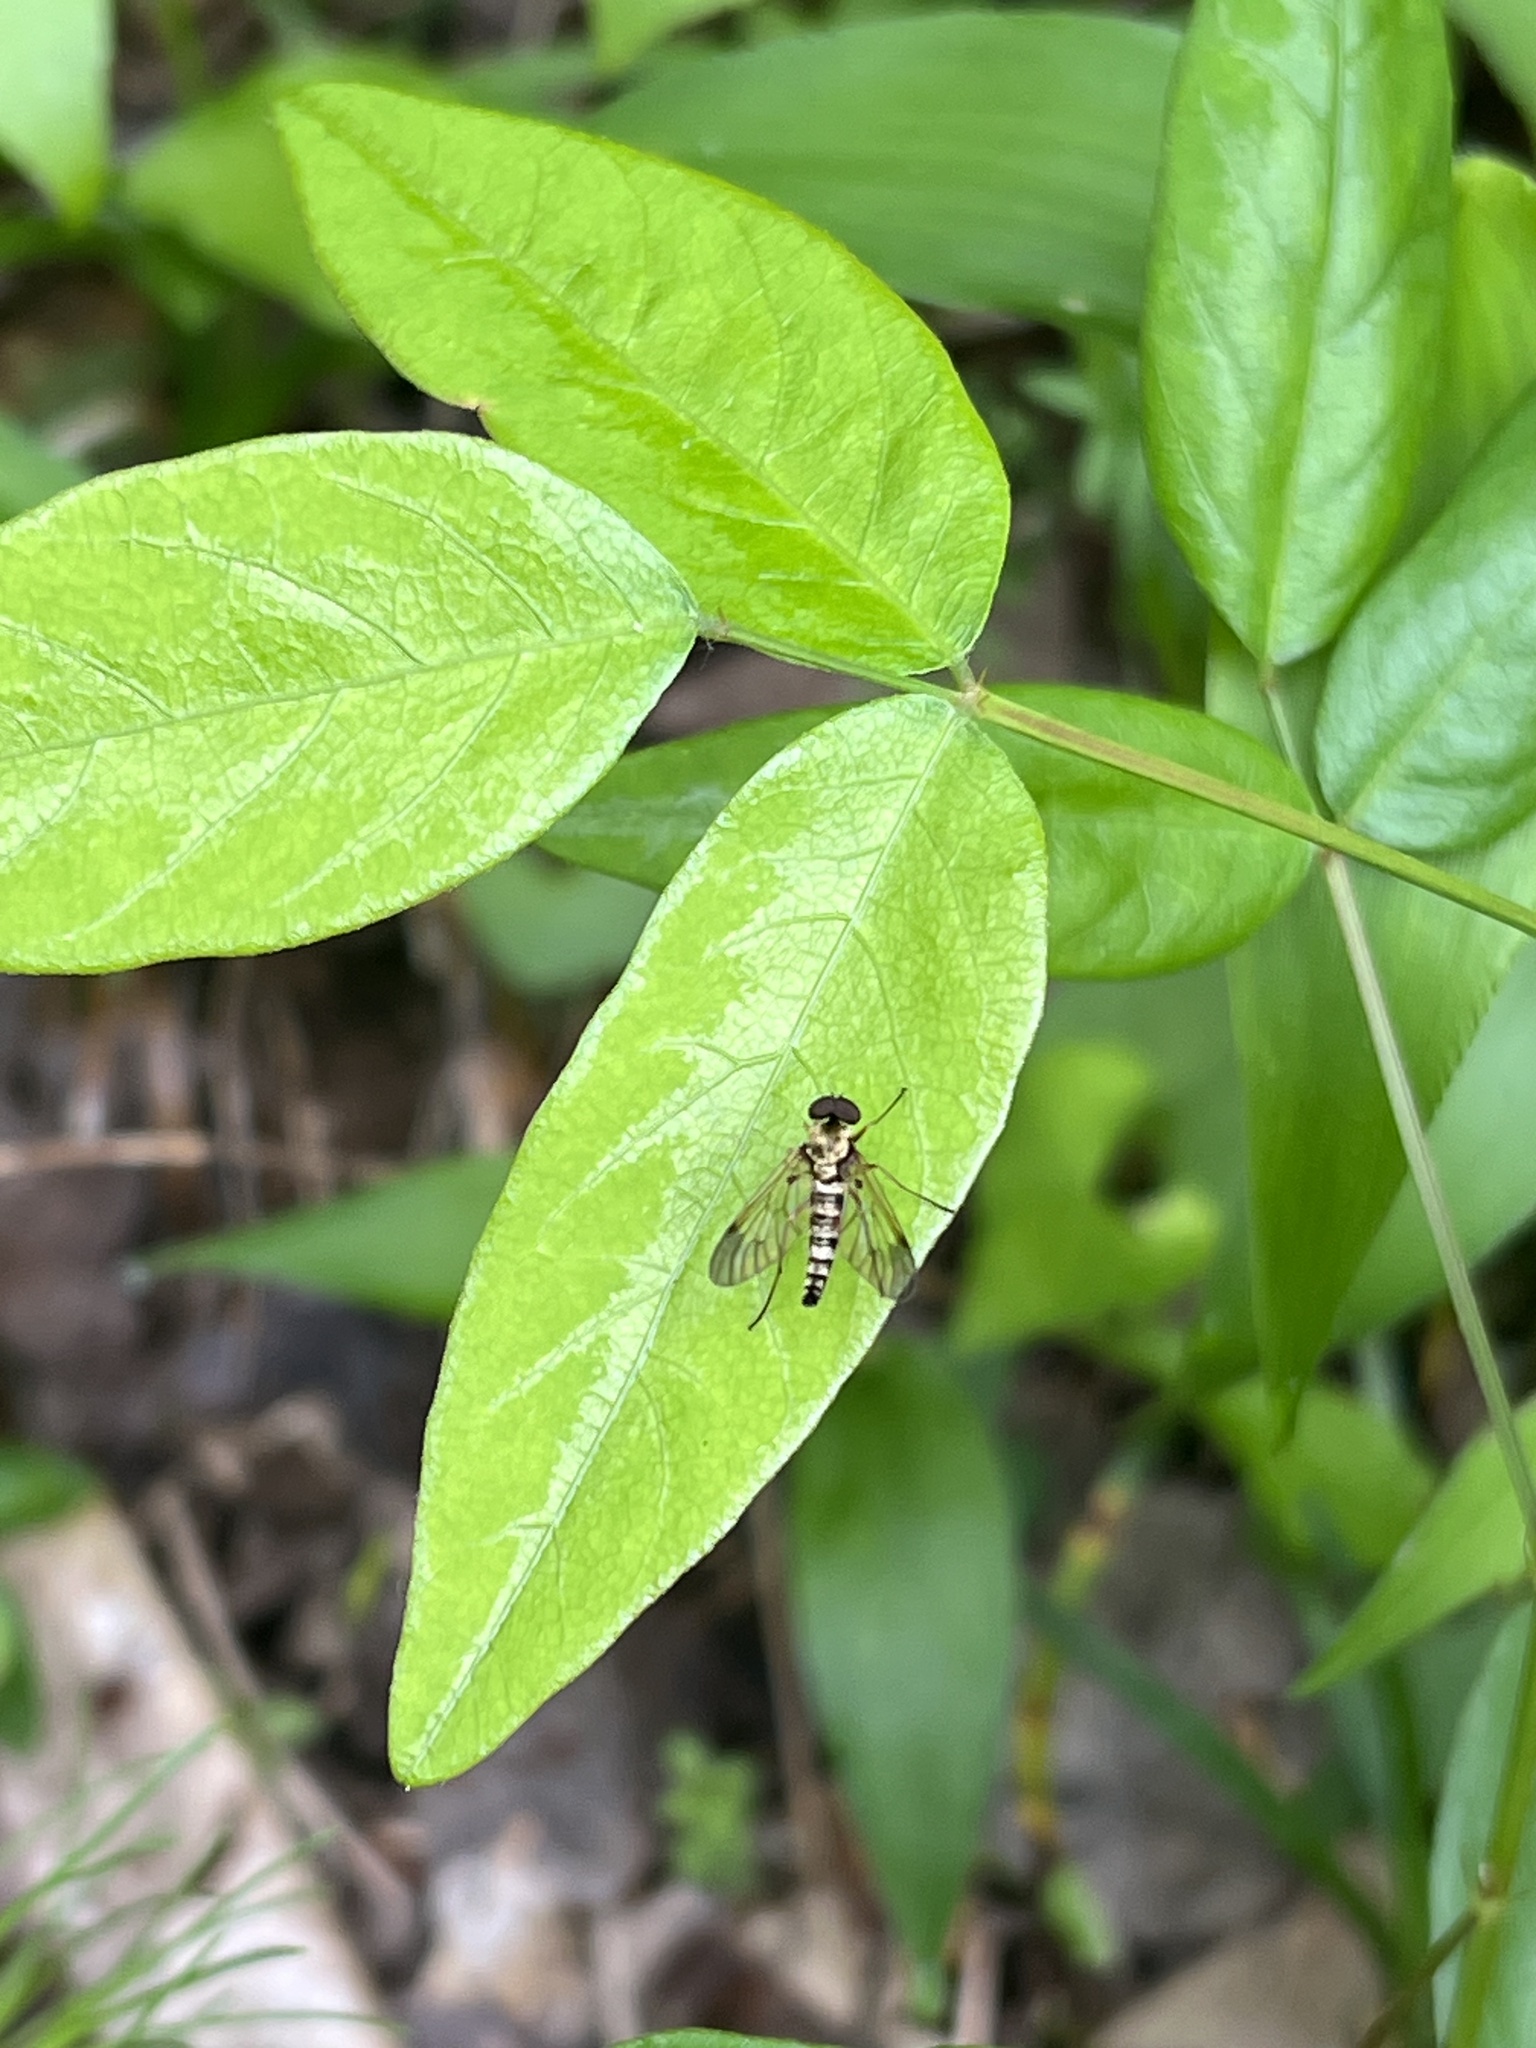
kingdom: Animalia
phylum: Arthropoda
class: Insecta
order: Diptera
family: Rhagionidae
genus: Chrysopilus
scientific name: Chrysopilus fasciatus
